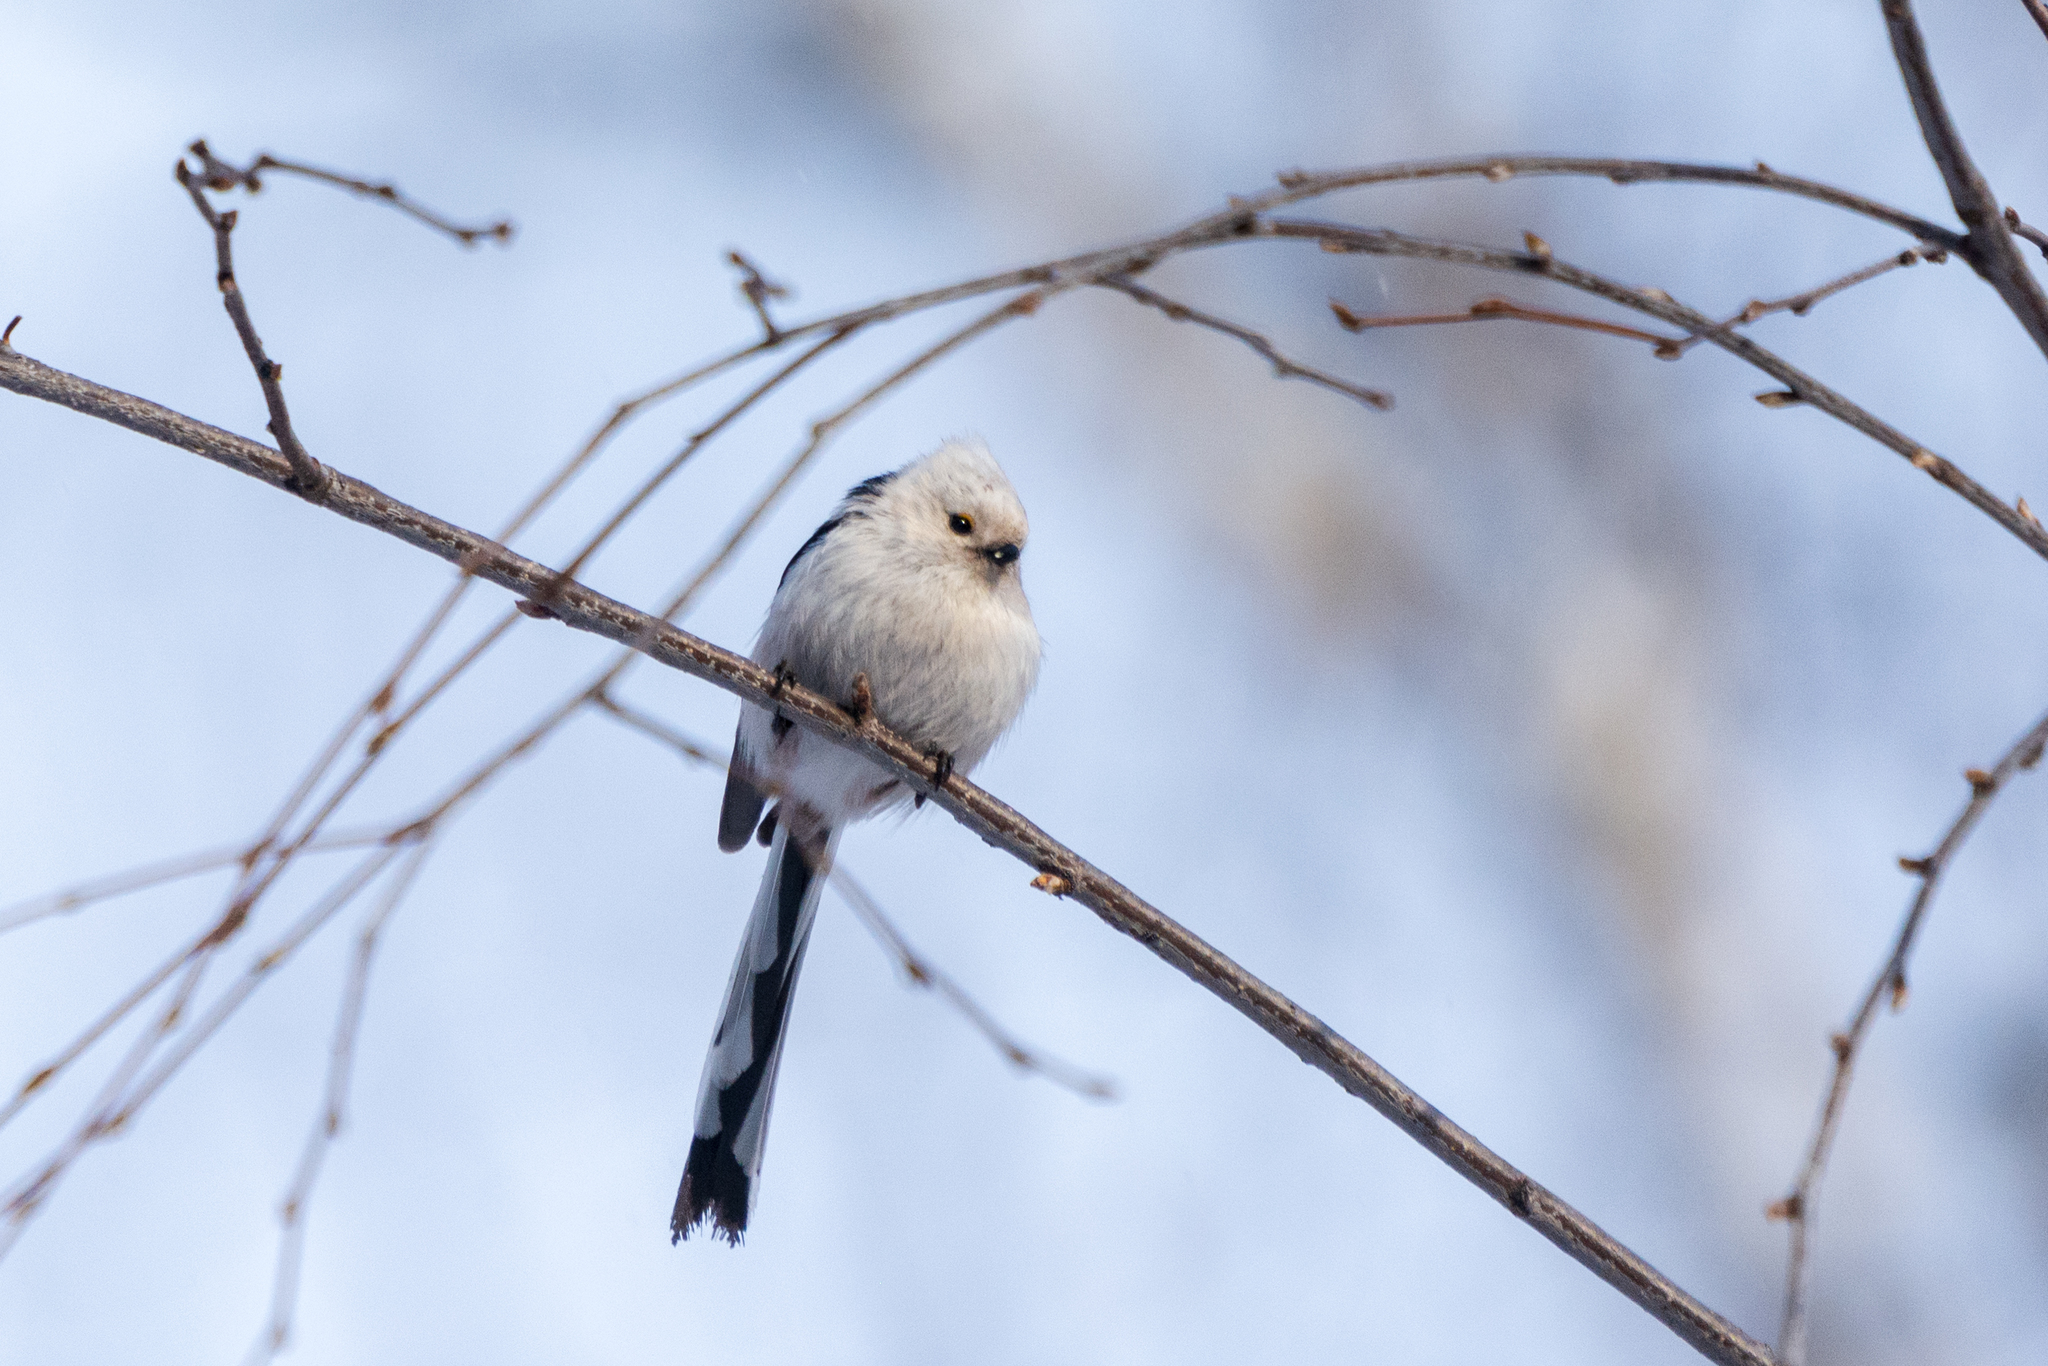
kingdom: Animalia
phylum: Chordata
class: Aves
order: Passeriformes
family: Aegithalidae
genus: Aegithalos
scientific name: Aegithalos caudatus
